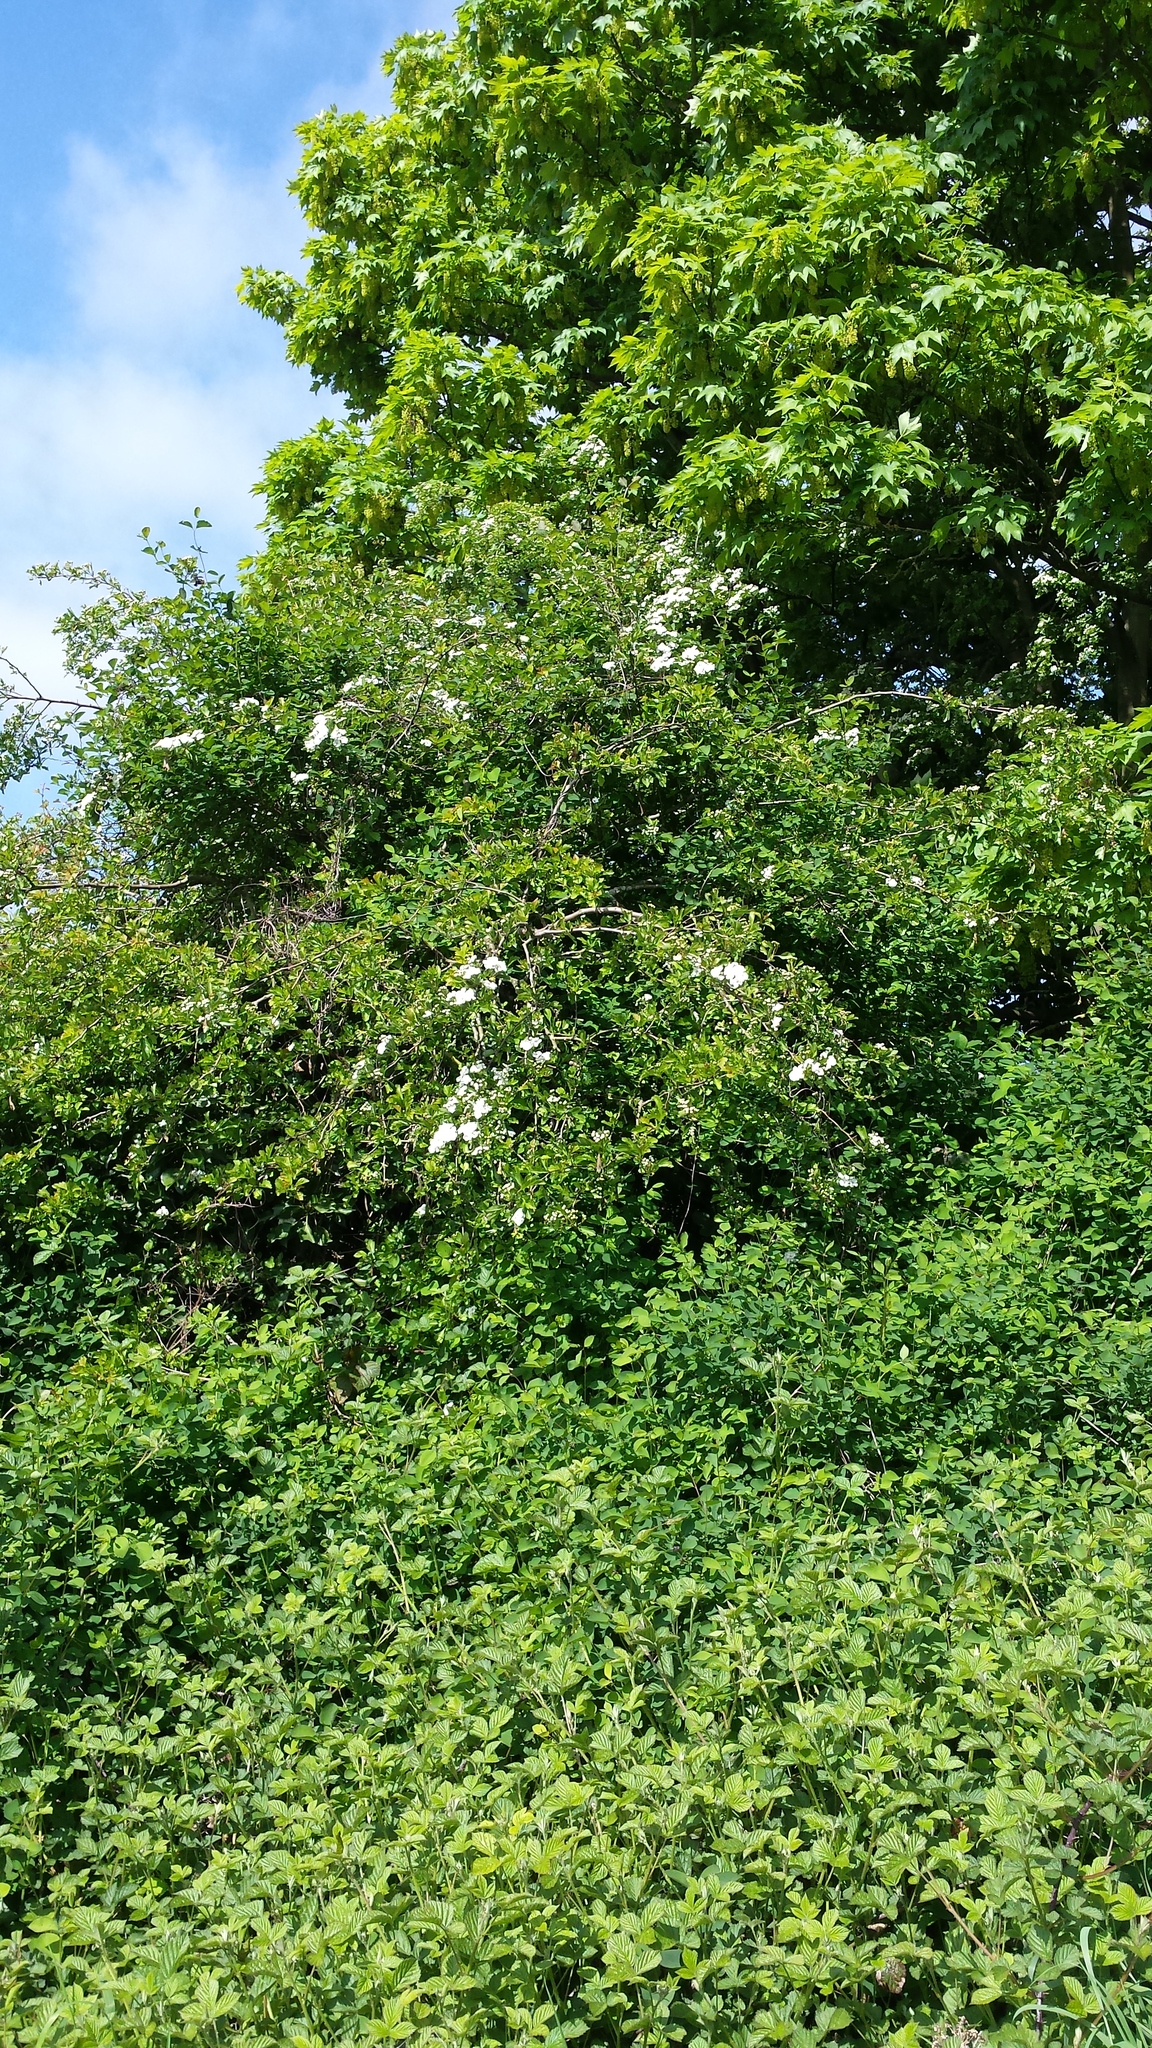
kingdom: Plantae
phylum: Tracheophyta
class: Magnoliopsida
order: Rosales
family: Rosaceae
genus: Crataegus
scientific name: Crataegus monogyna
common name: Hawthorn
